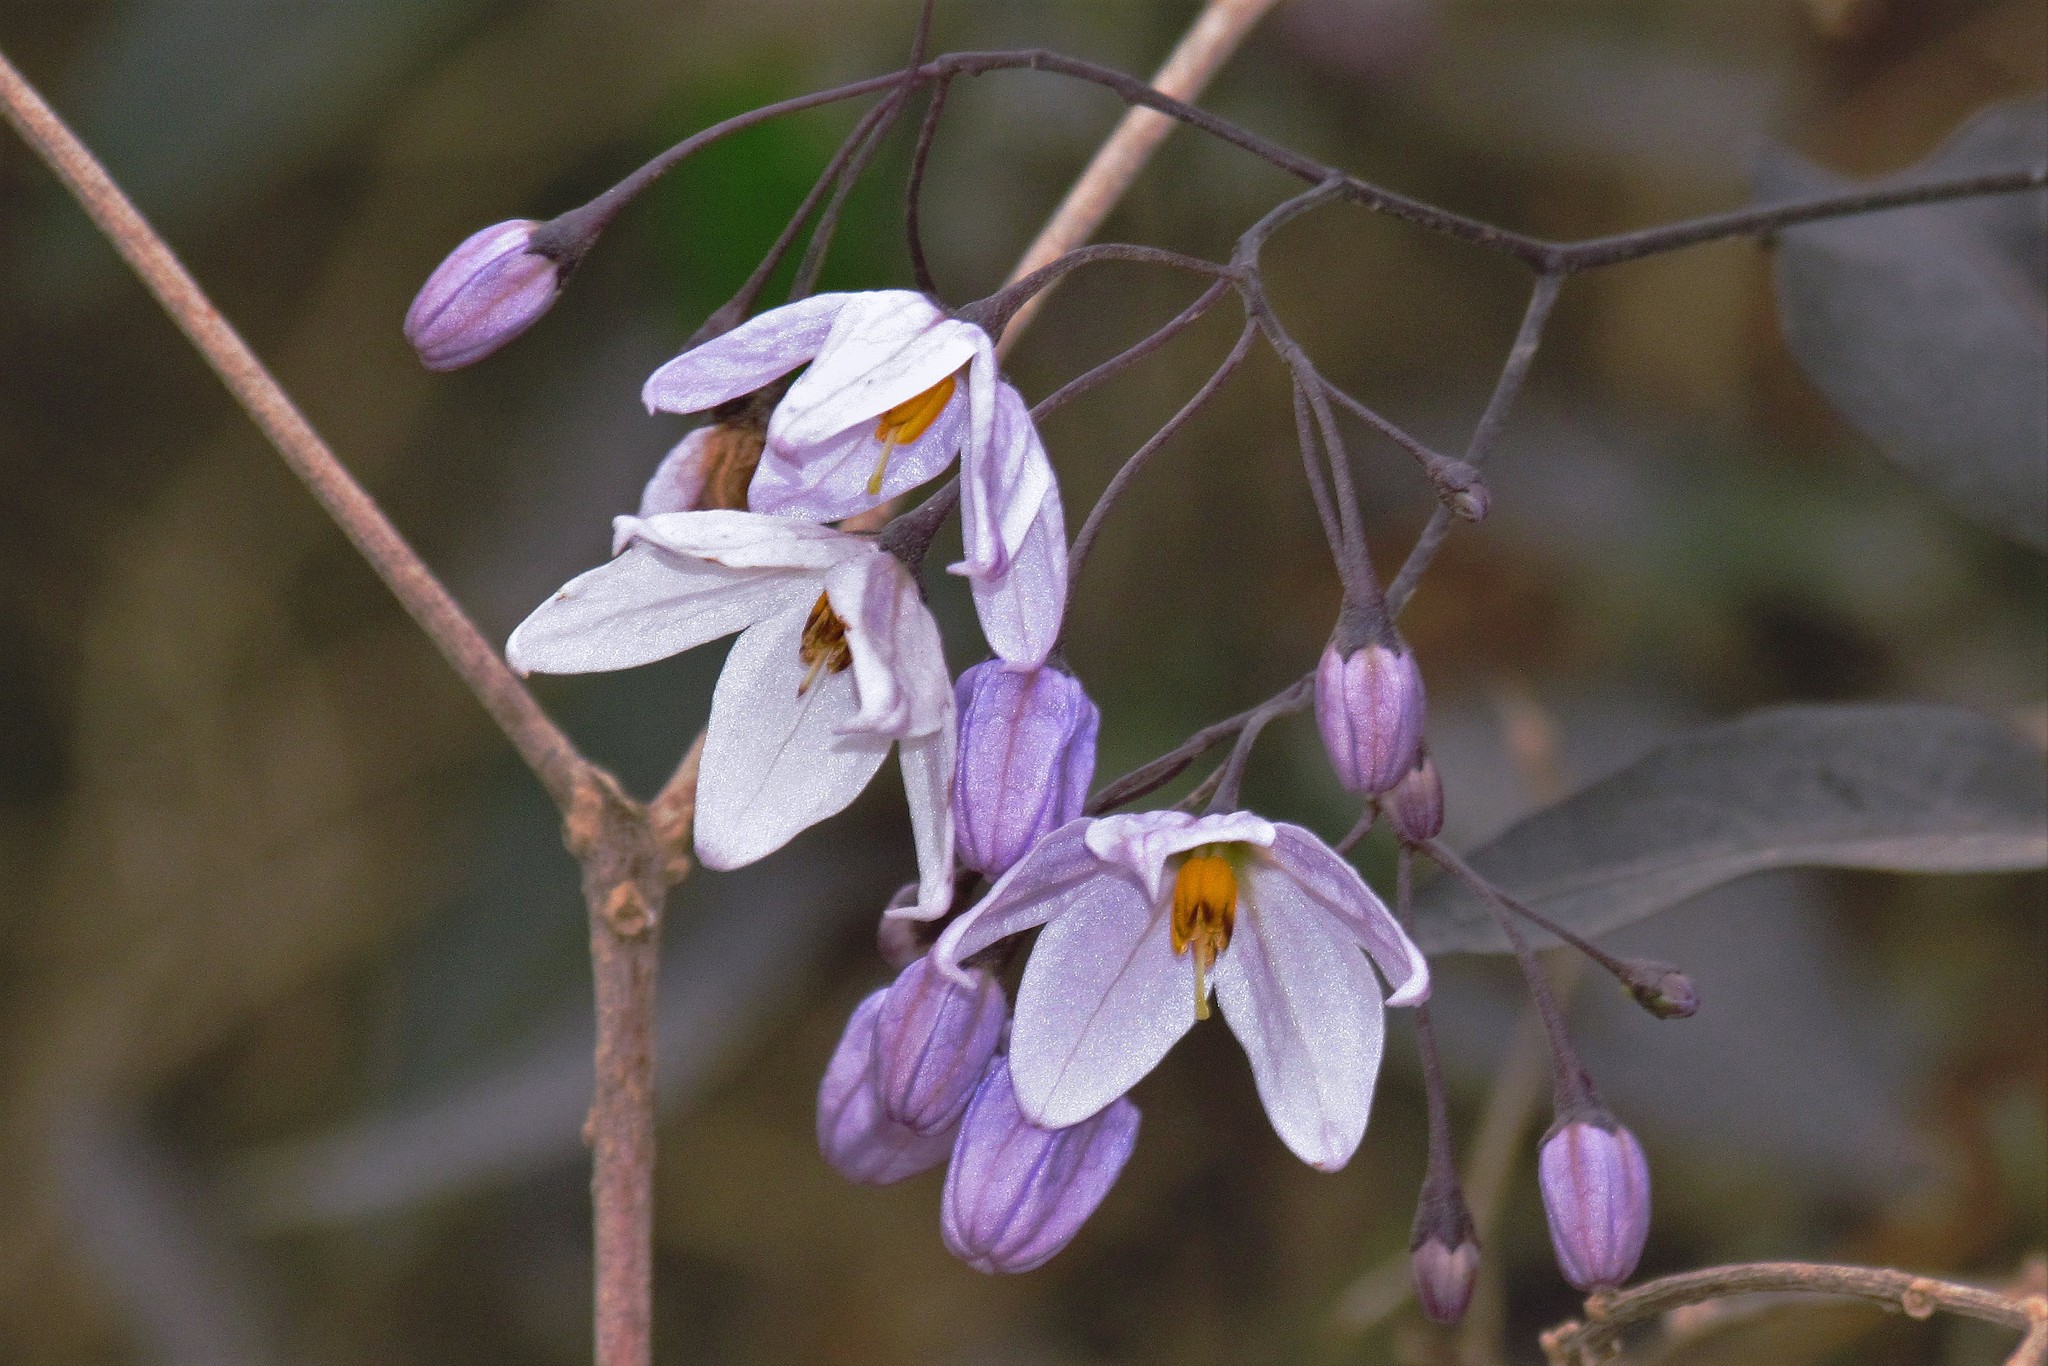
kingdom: Plantae
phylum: Tracheophyta
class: Magnoliopsida
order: Solanales
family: Solanaceae
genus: Solanum
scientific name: Solanum laxum
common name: Nightshade
